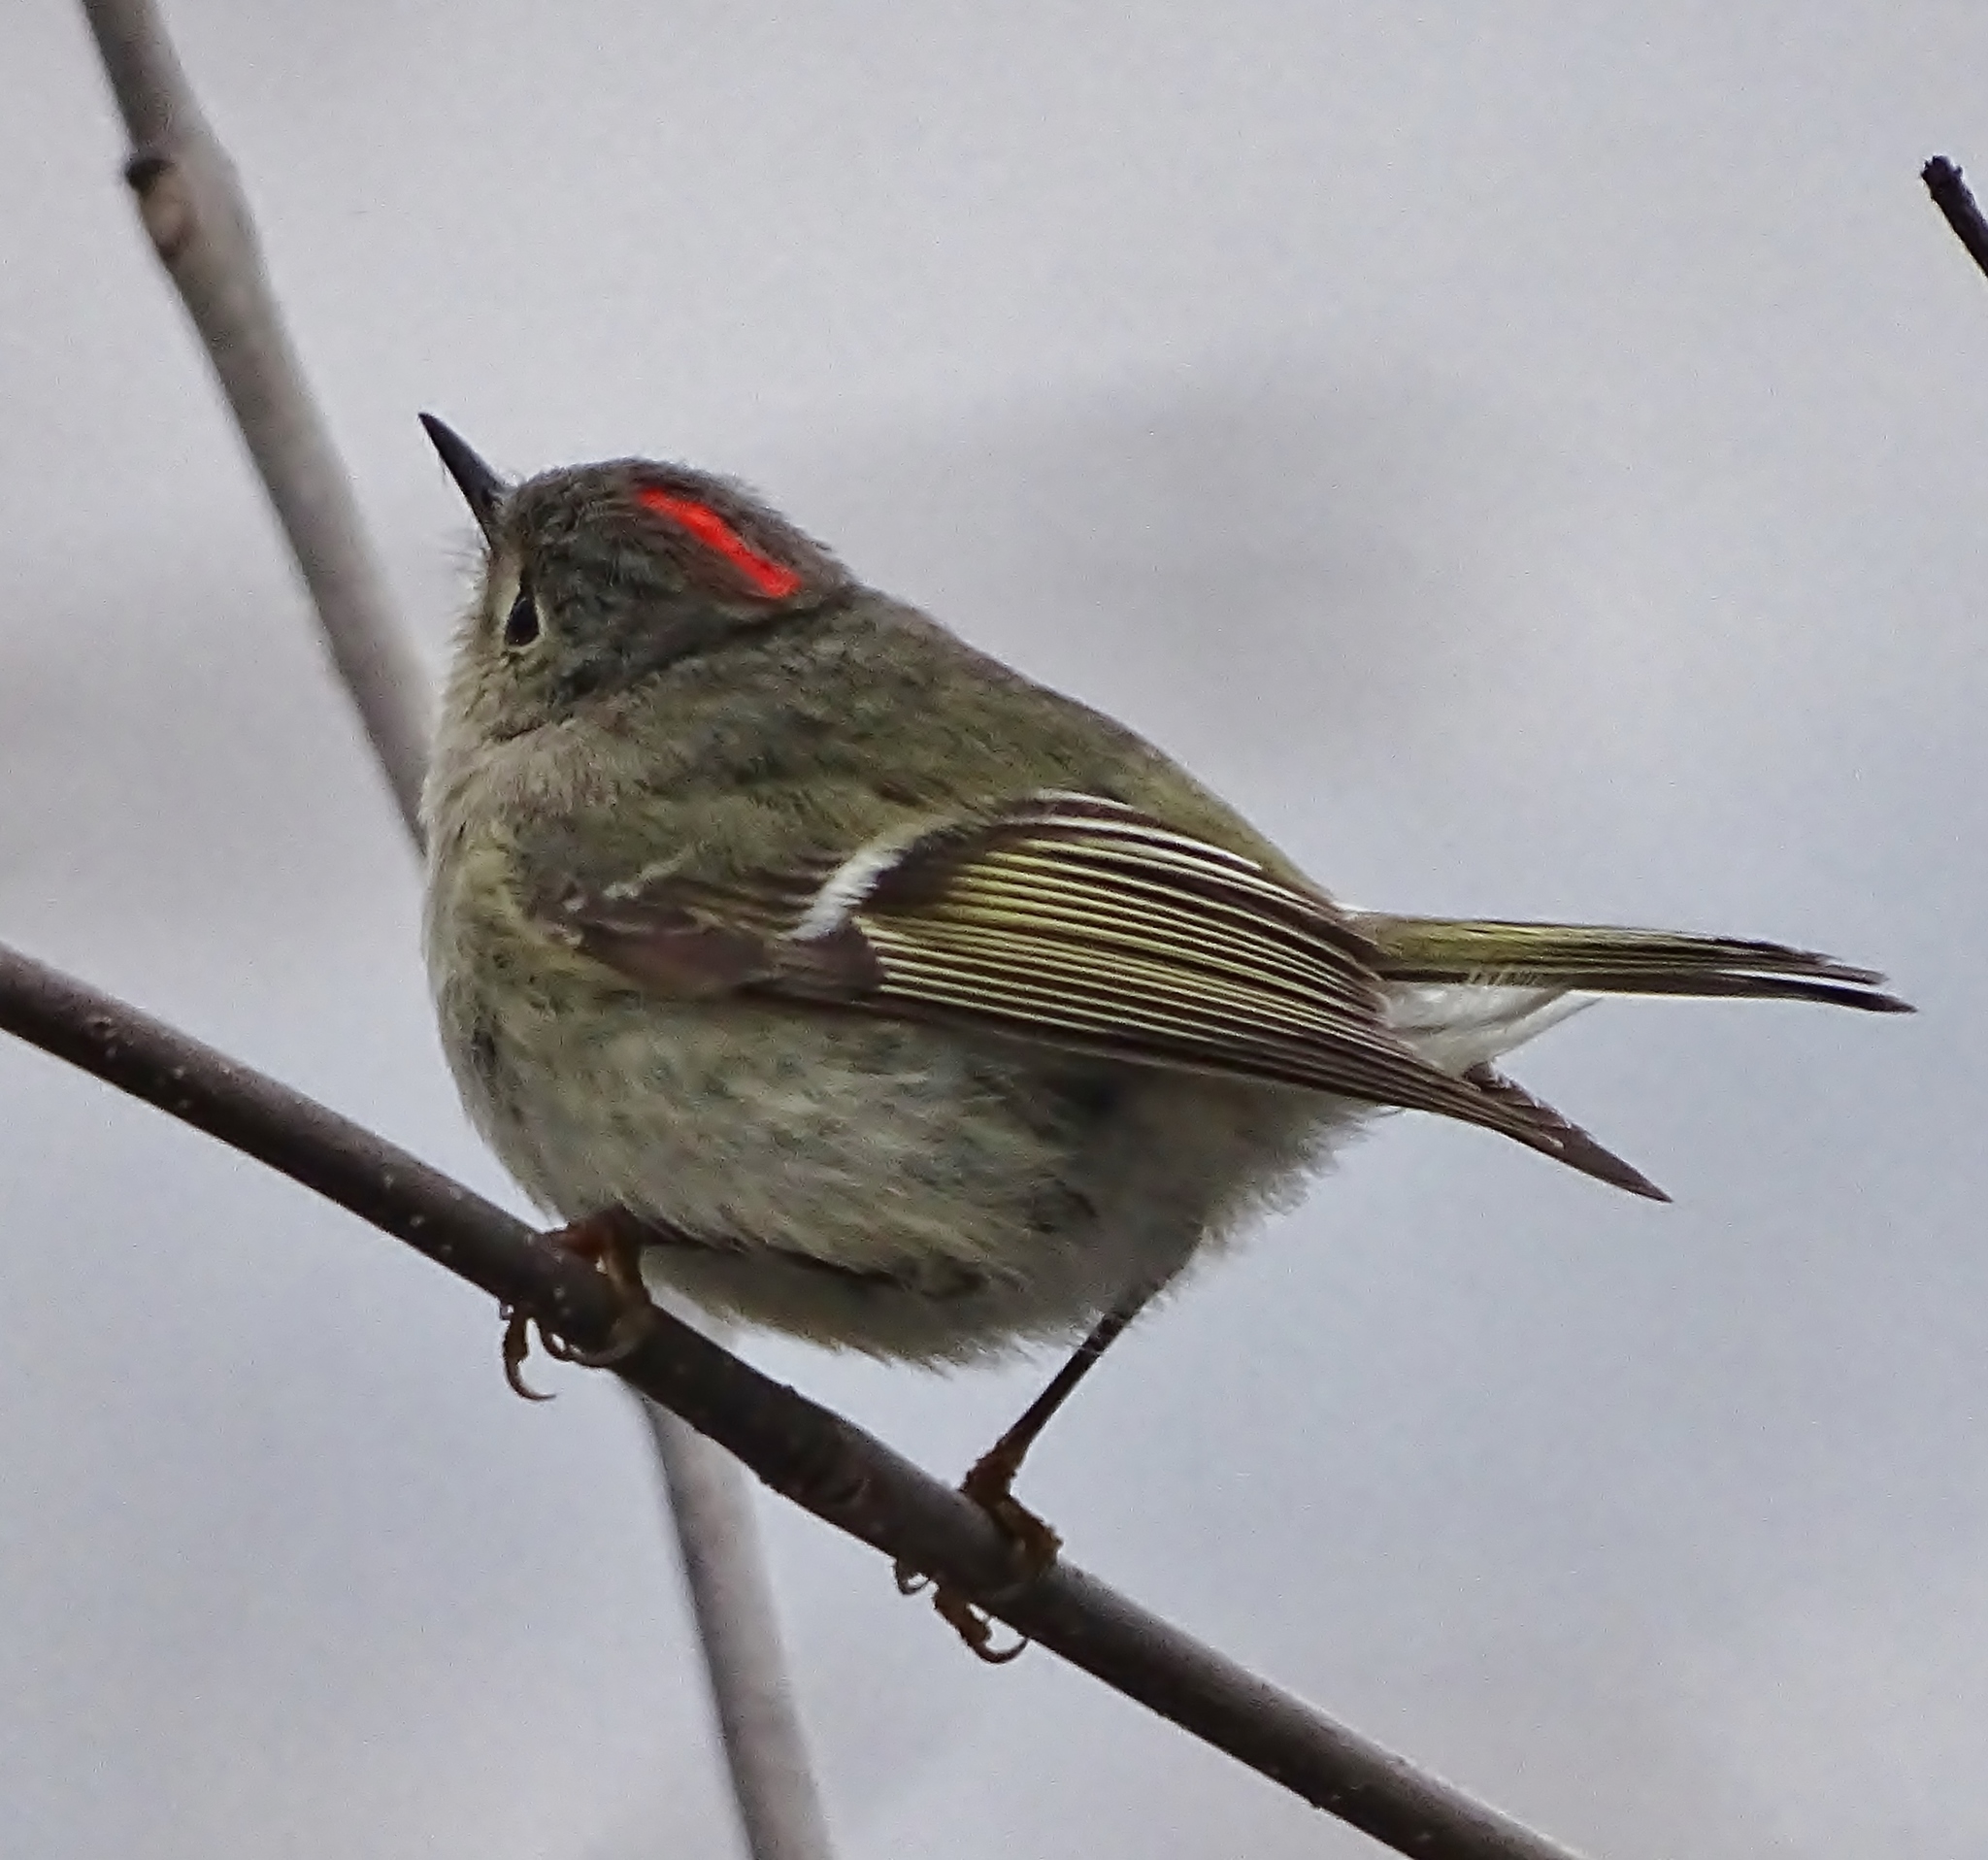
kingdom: Animalia
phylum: Chordata
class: Aves
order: Passeriformes
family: Regulidae
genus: Regulus
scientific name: Regulus calendula
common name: Ruby-crowned kinglet
